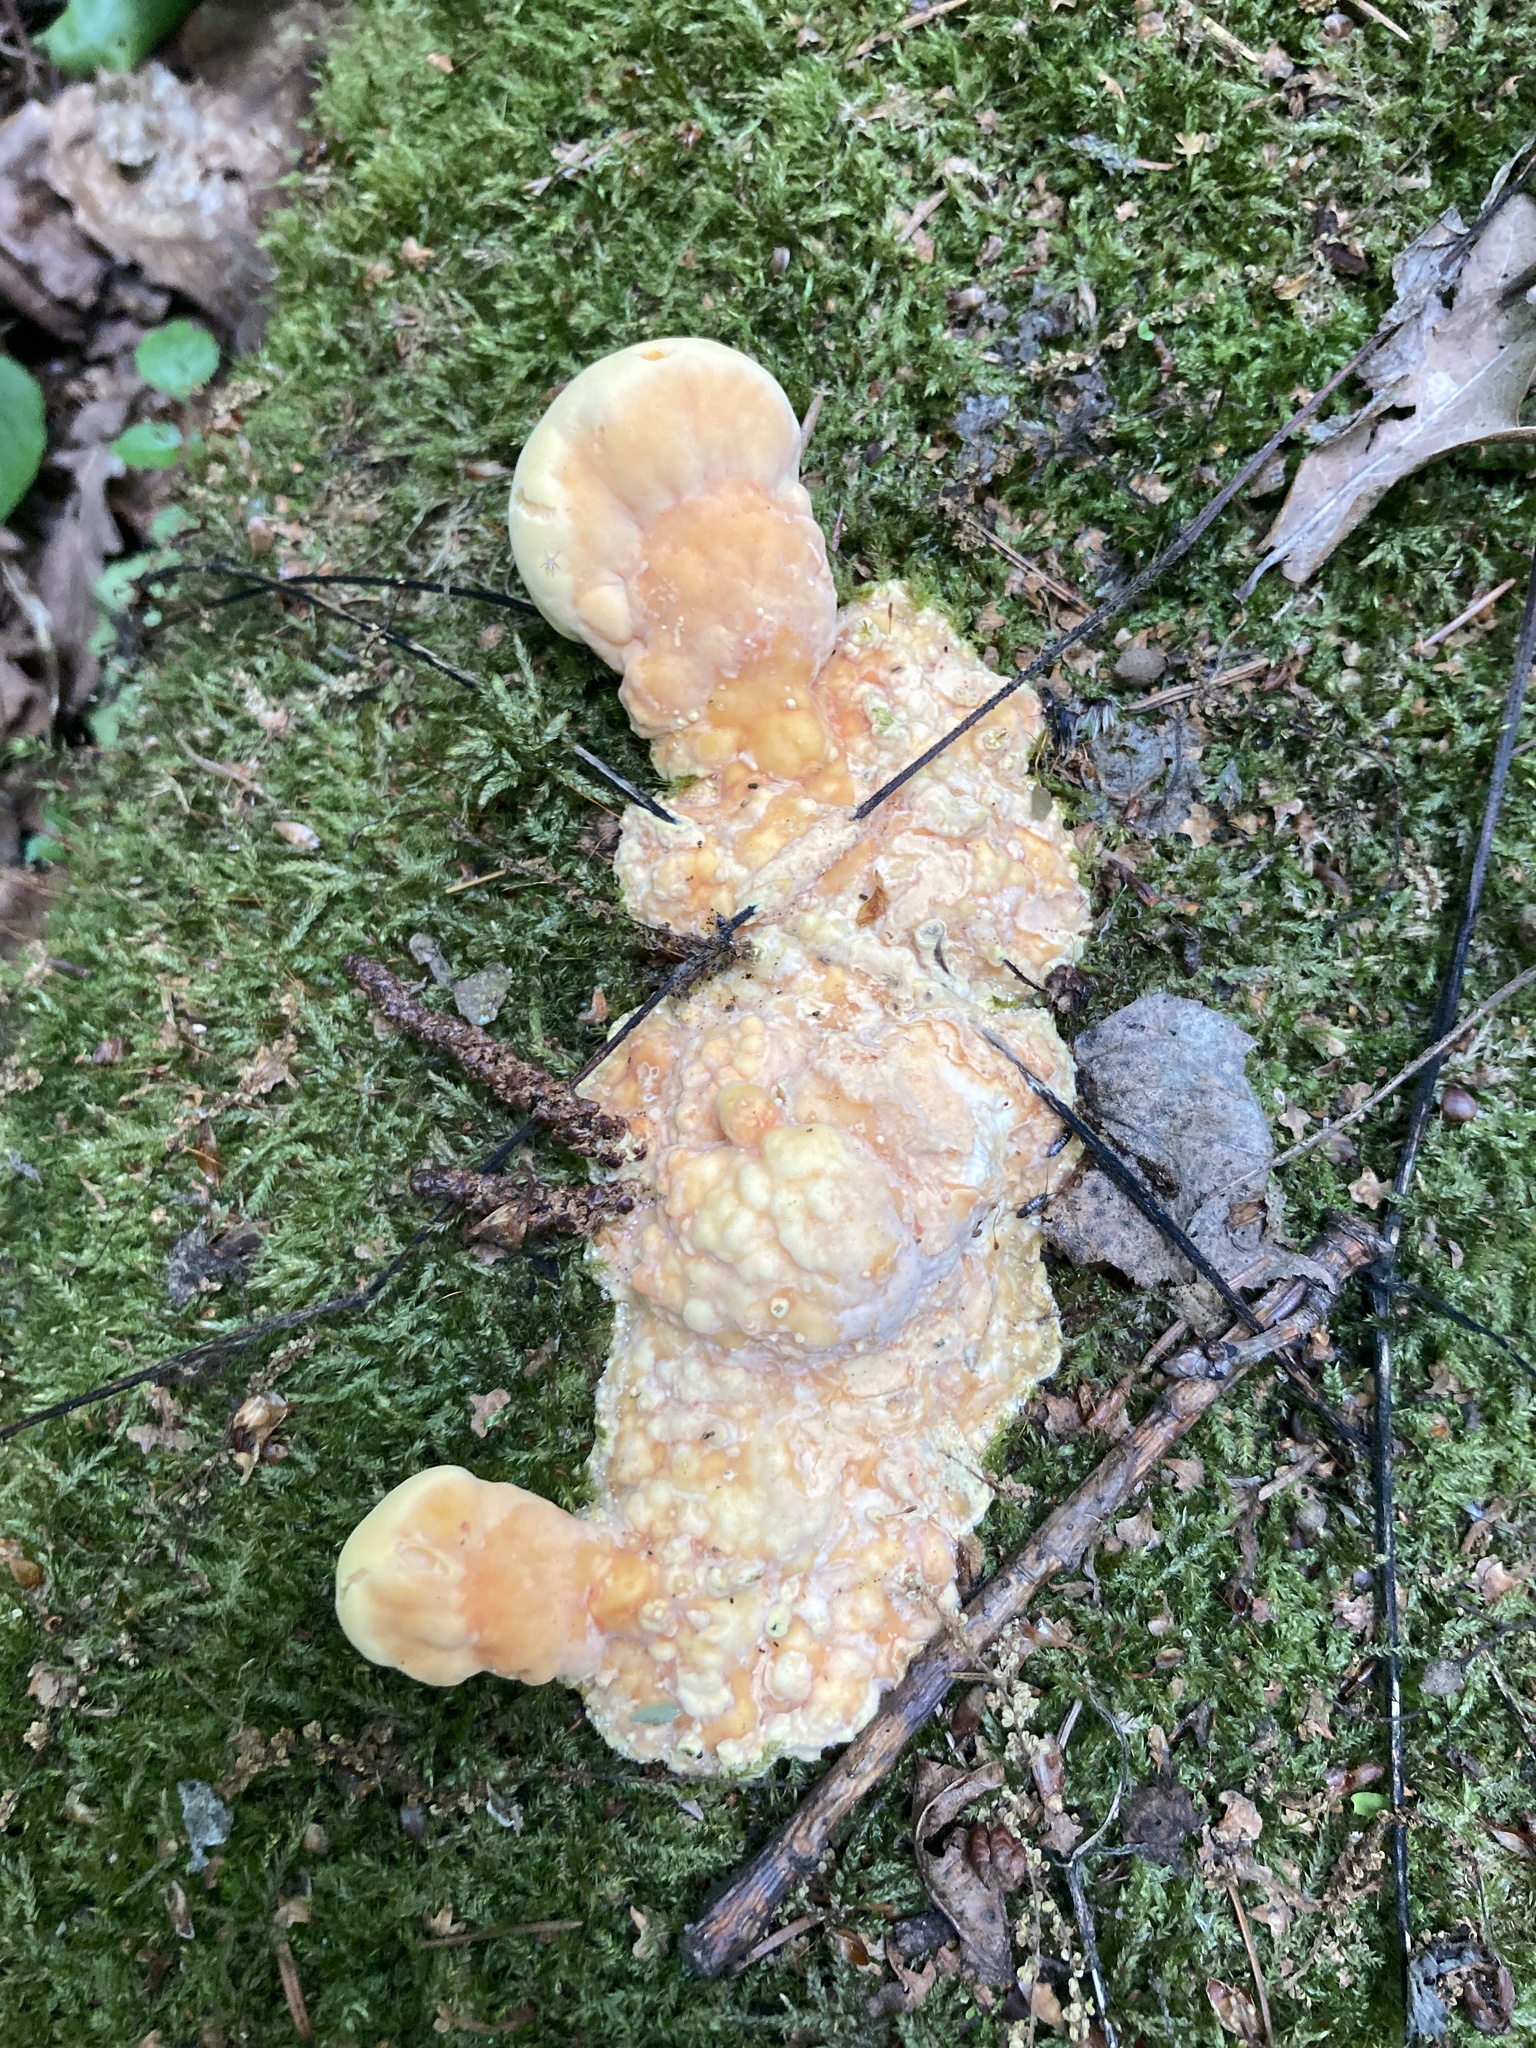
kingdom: Fungi
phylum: Basidiomycota
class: Agaricomycetes
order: Polyporales
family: Laetiporaceae
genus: Laetiporus
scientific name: Laetiporus sulphureus
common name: Chicken of the woods
